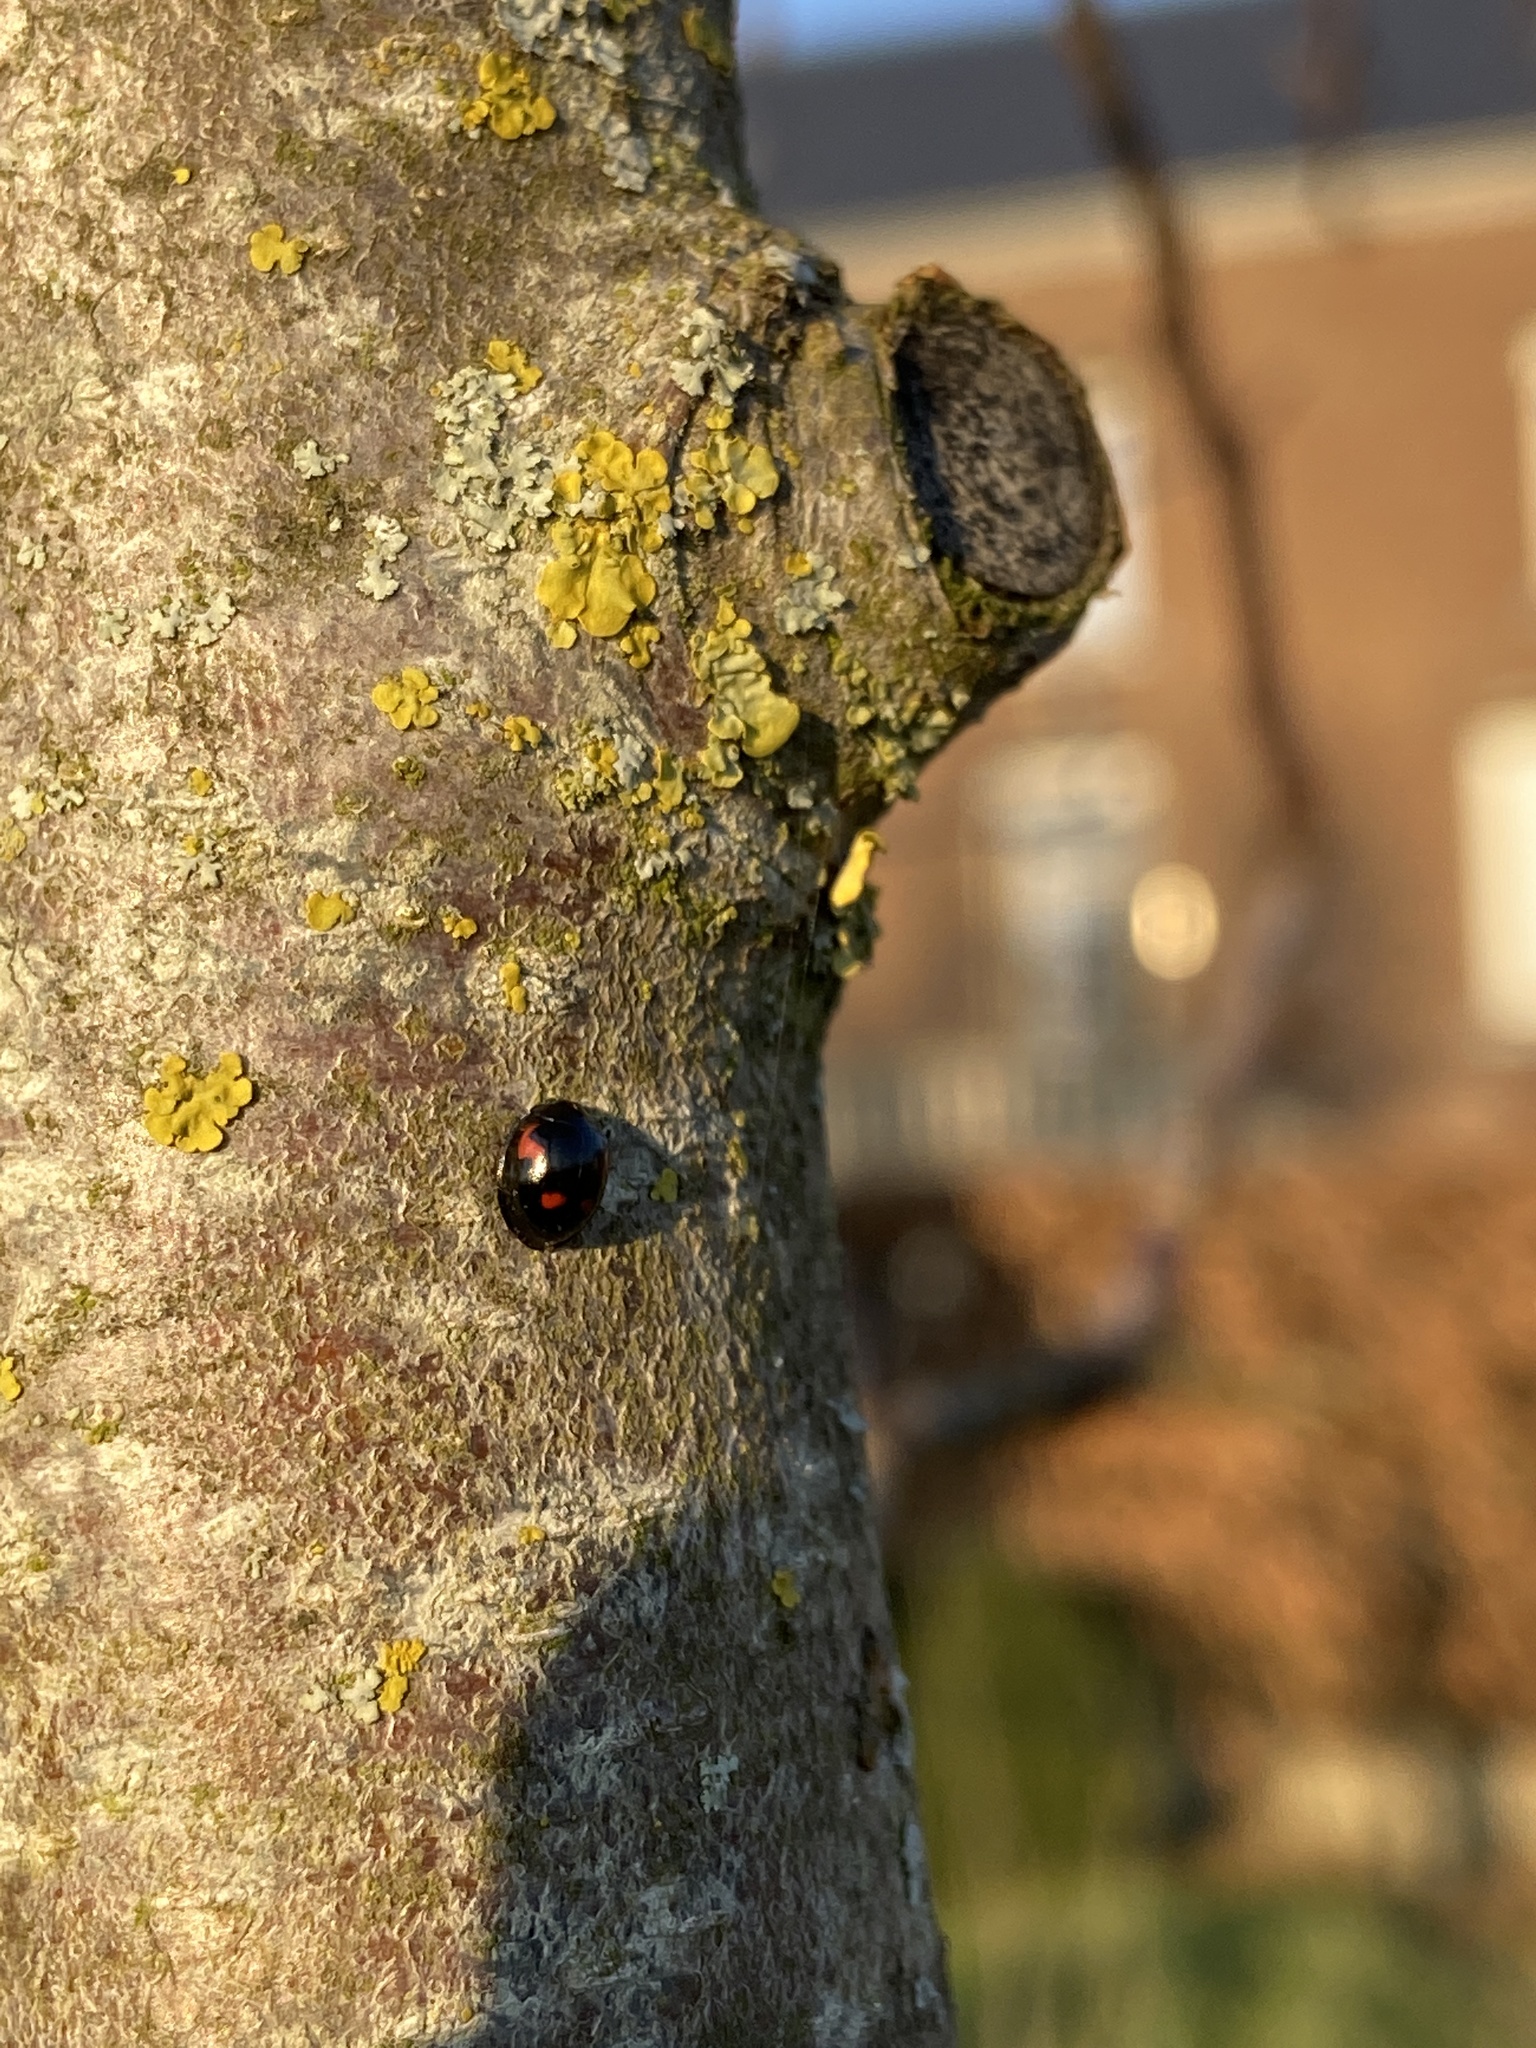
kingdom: Animalia
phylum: Arthropoda
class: Insecta
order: Coleoptera
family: Coccinellidae
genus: Brumus
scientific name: Brumus quadripustulatus
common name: Ladybird beetle
